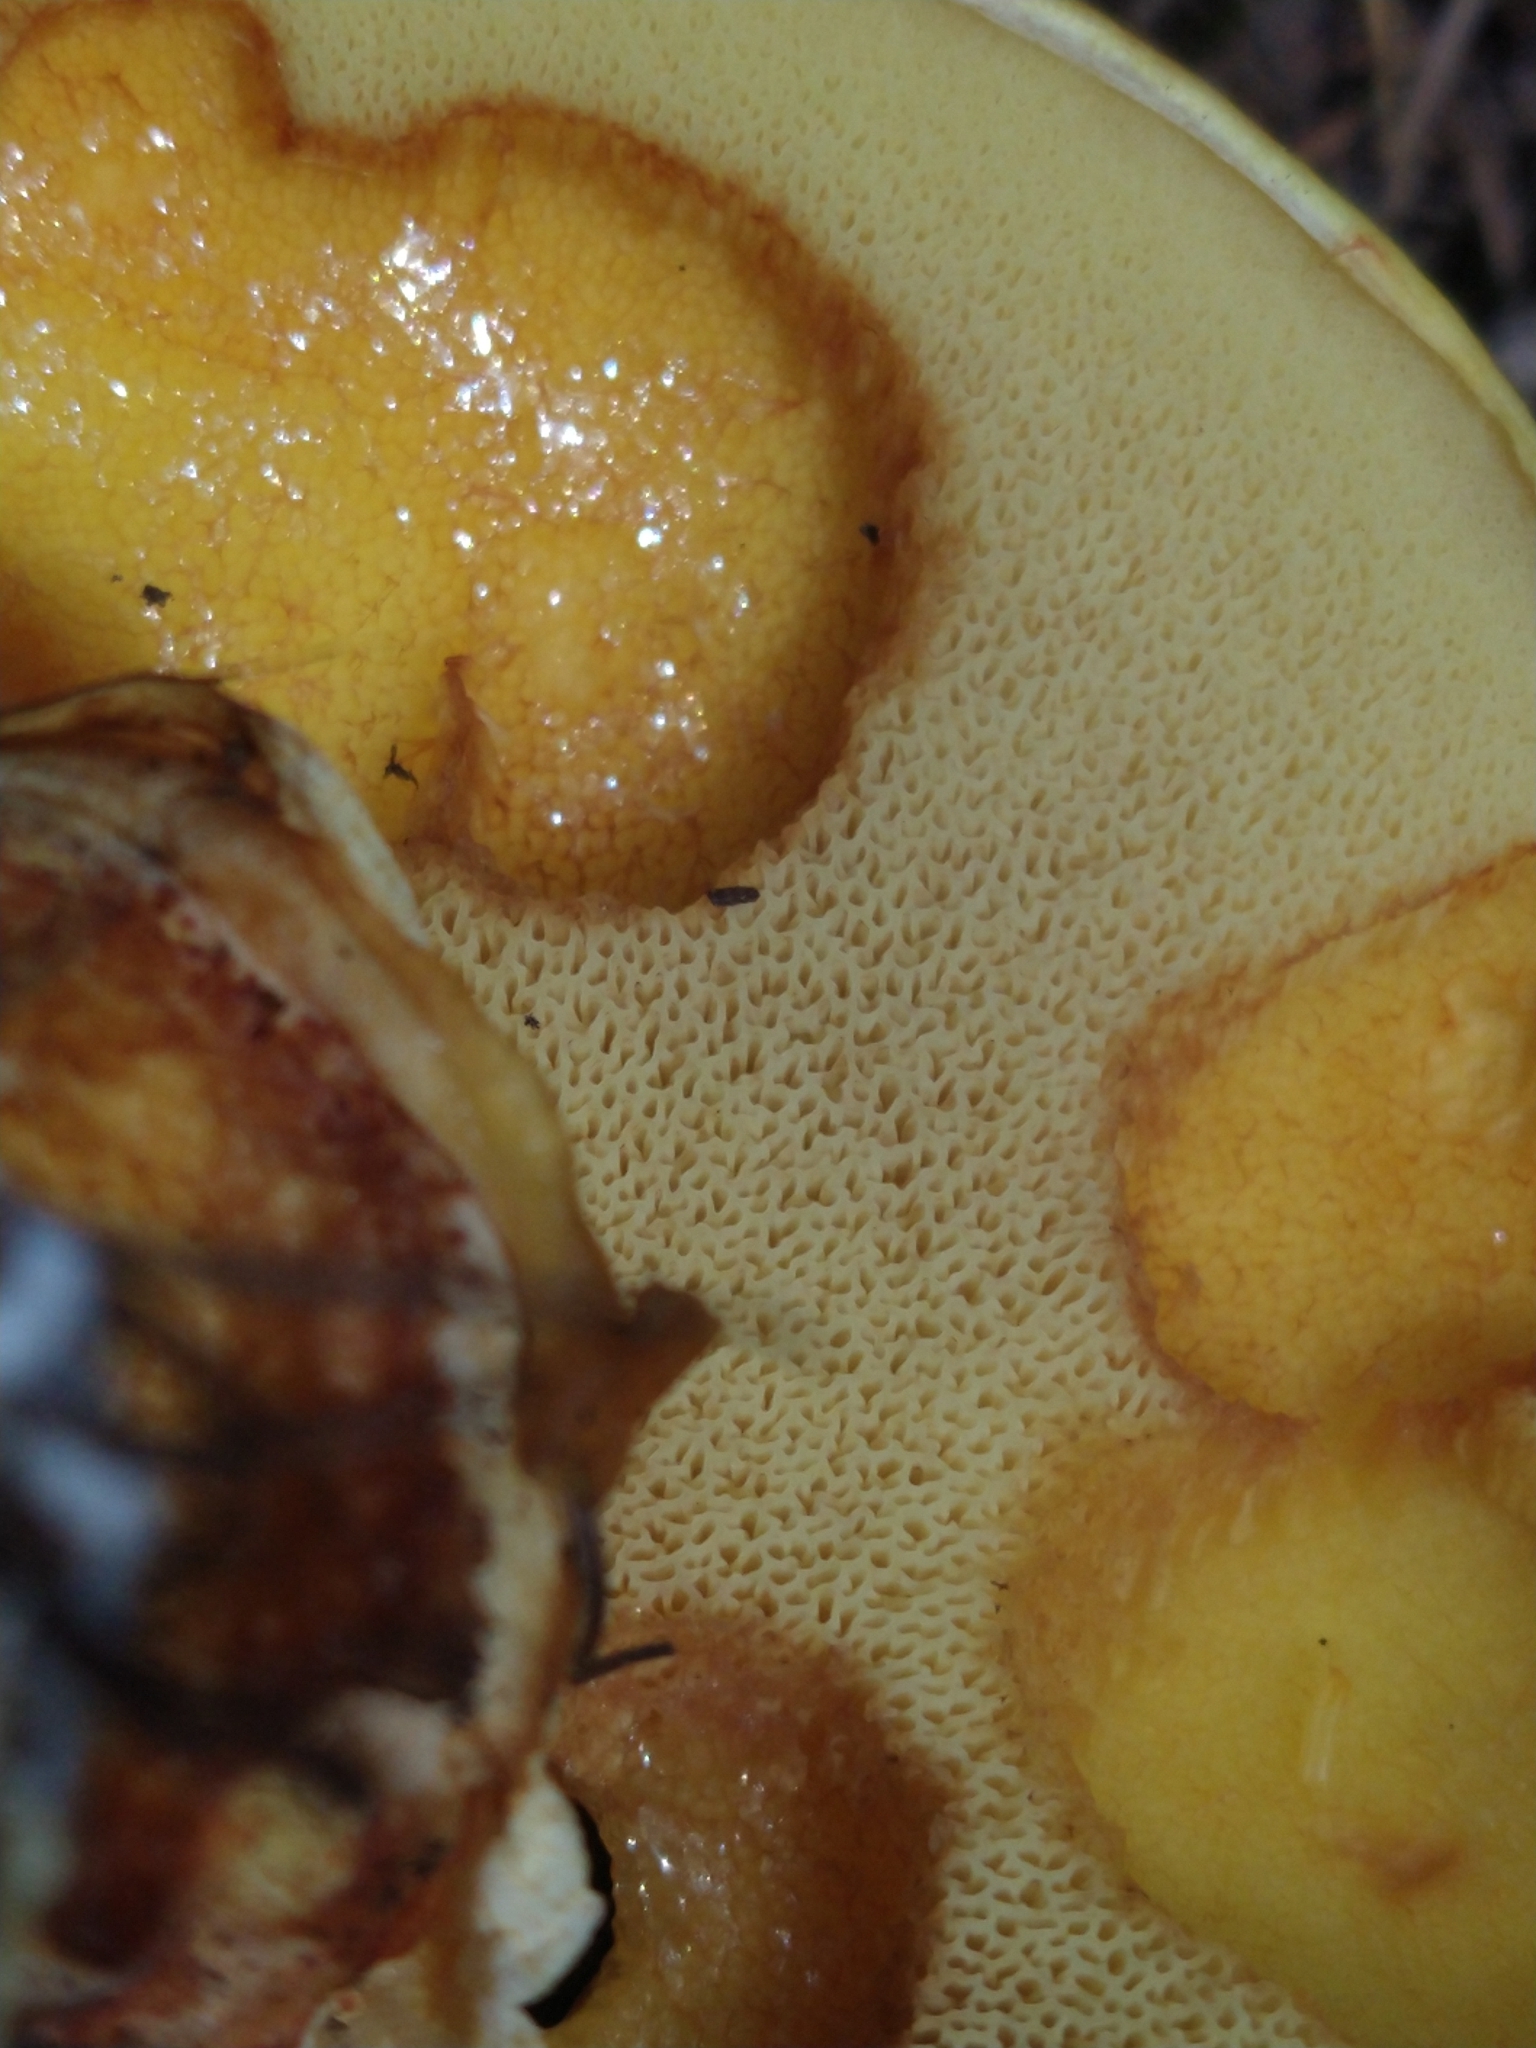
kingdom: Fungi
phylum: Basidiomycota
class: Agaricomycetes
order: Boletales
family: Suillaceae
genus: Suillus
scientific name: Suillus grevillei
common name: Larch bolete
